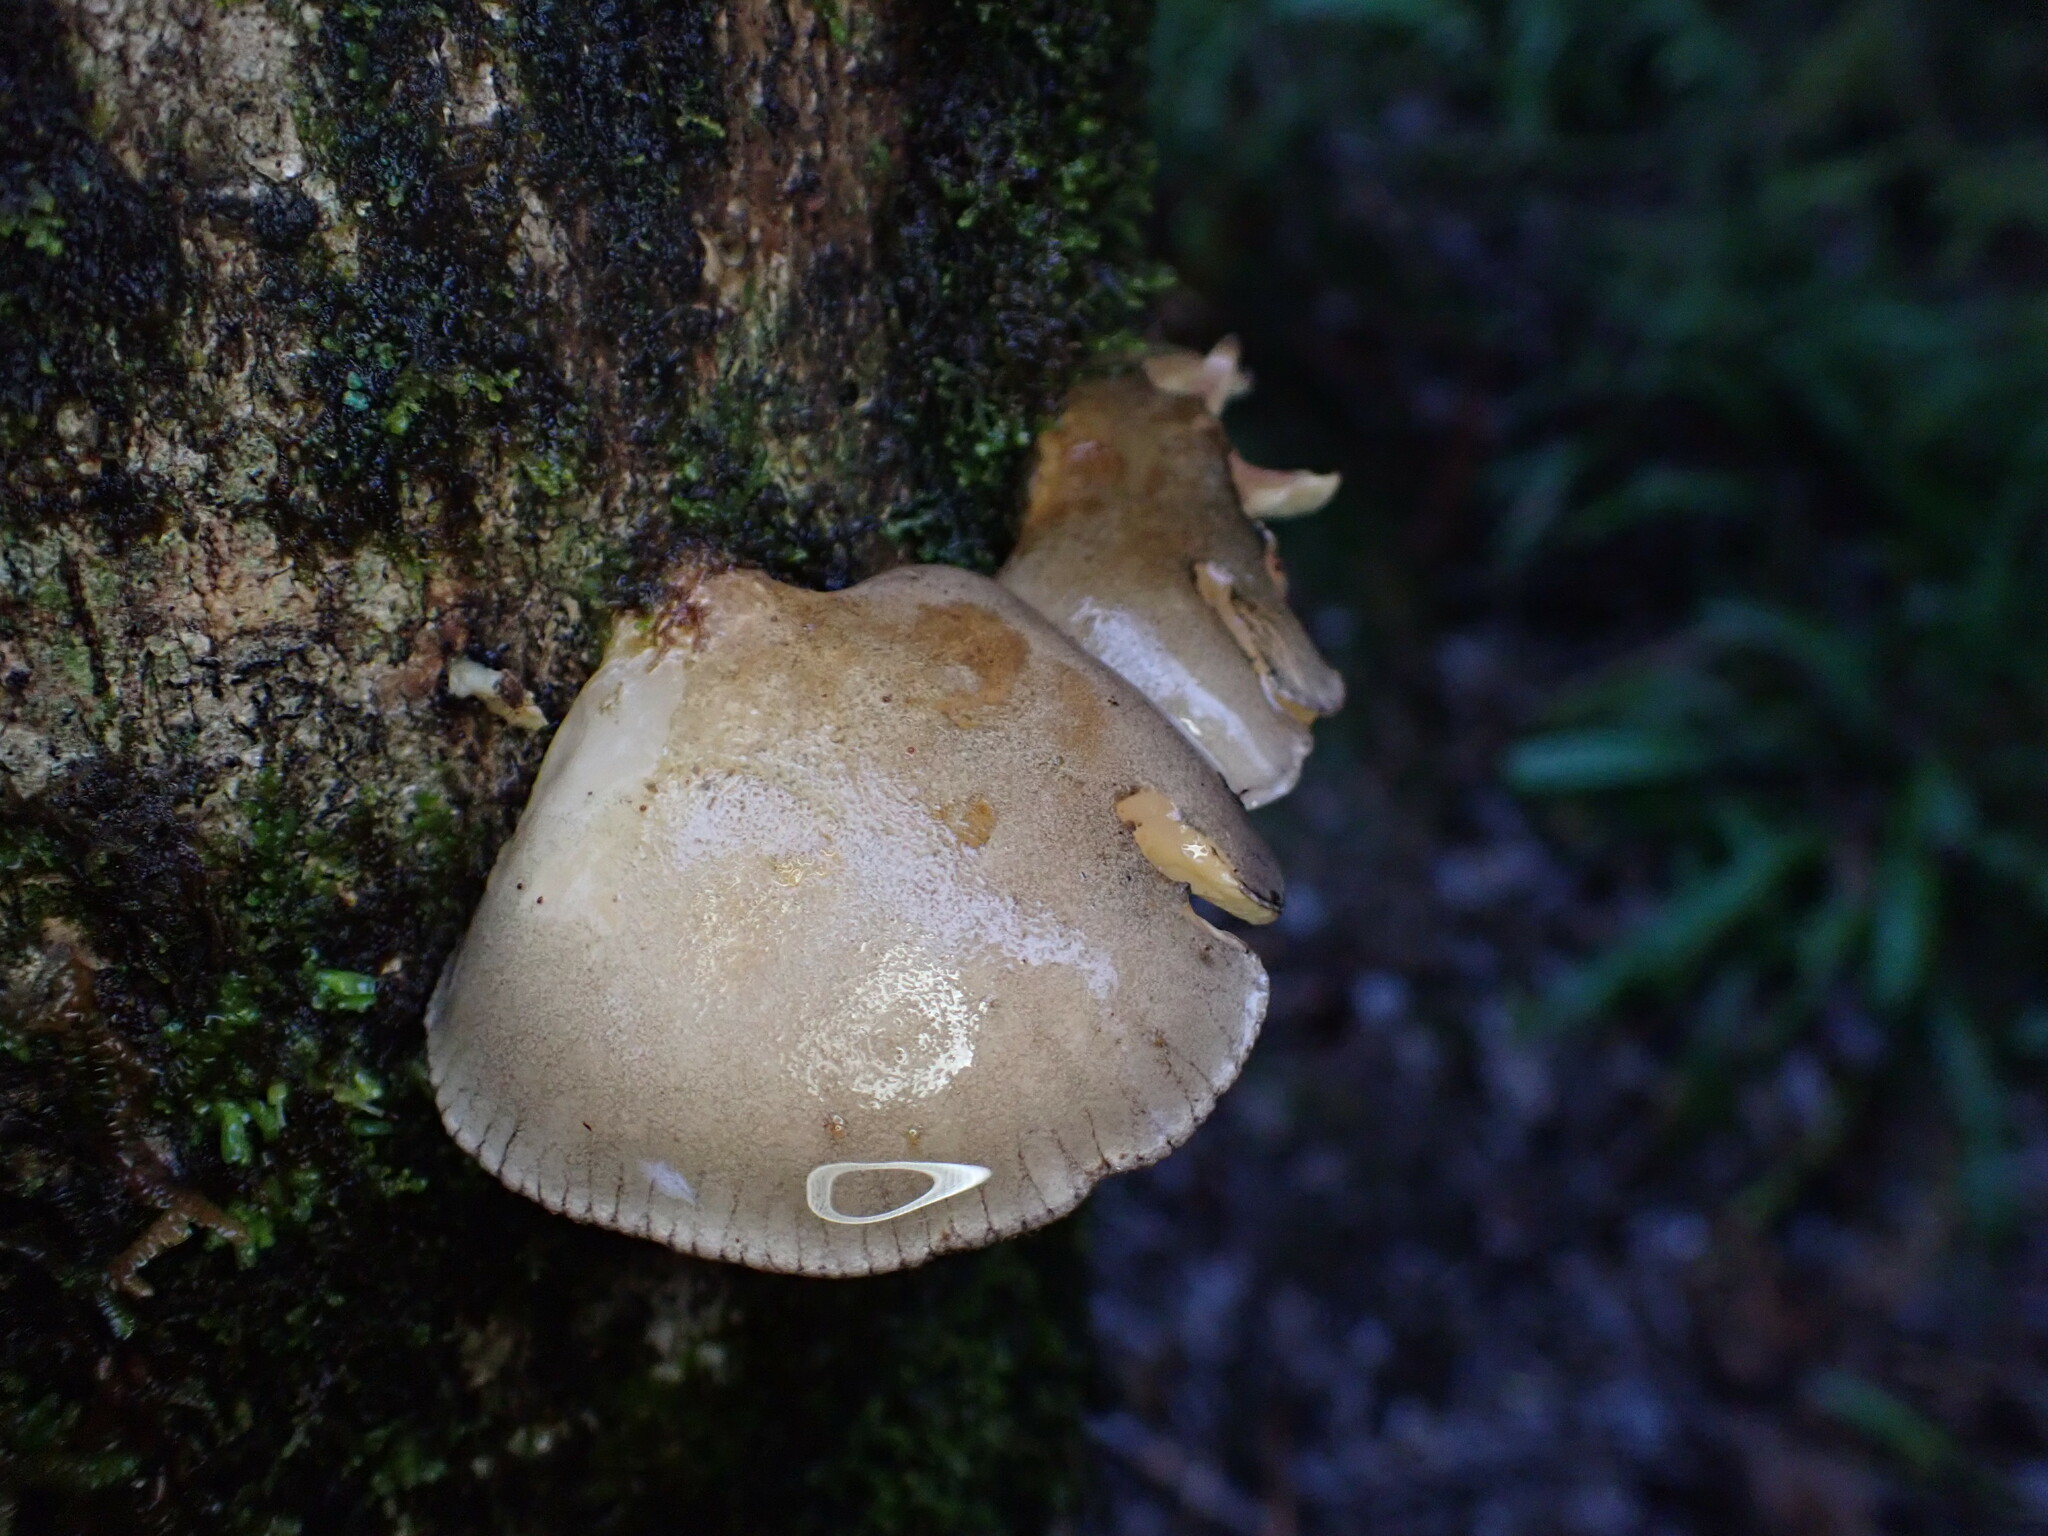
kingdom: Fungi
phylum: Basidiomycota
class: Agaricomycetes
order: Agaricales
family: Sarcomyxaceae
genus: Sarcomyxa
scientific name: Sarcomyxa serotina
